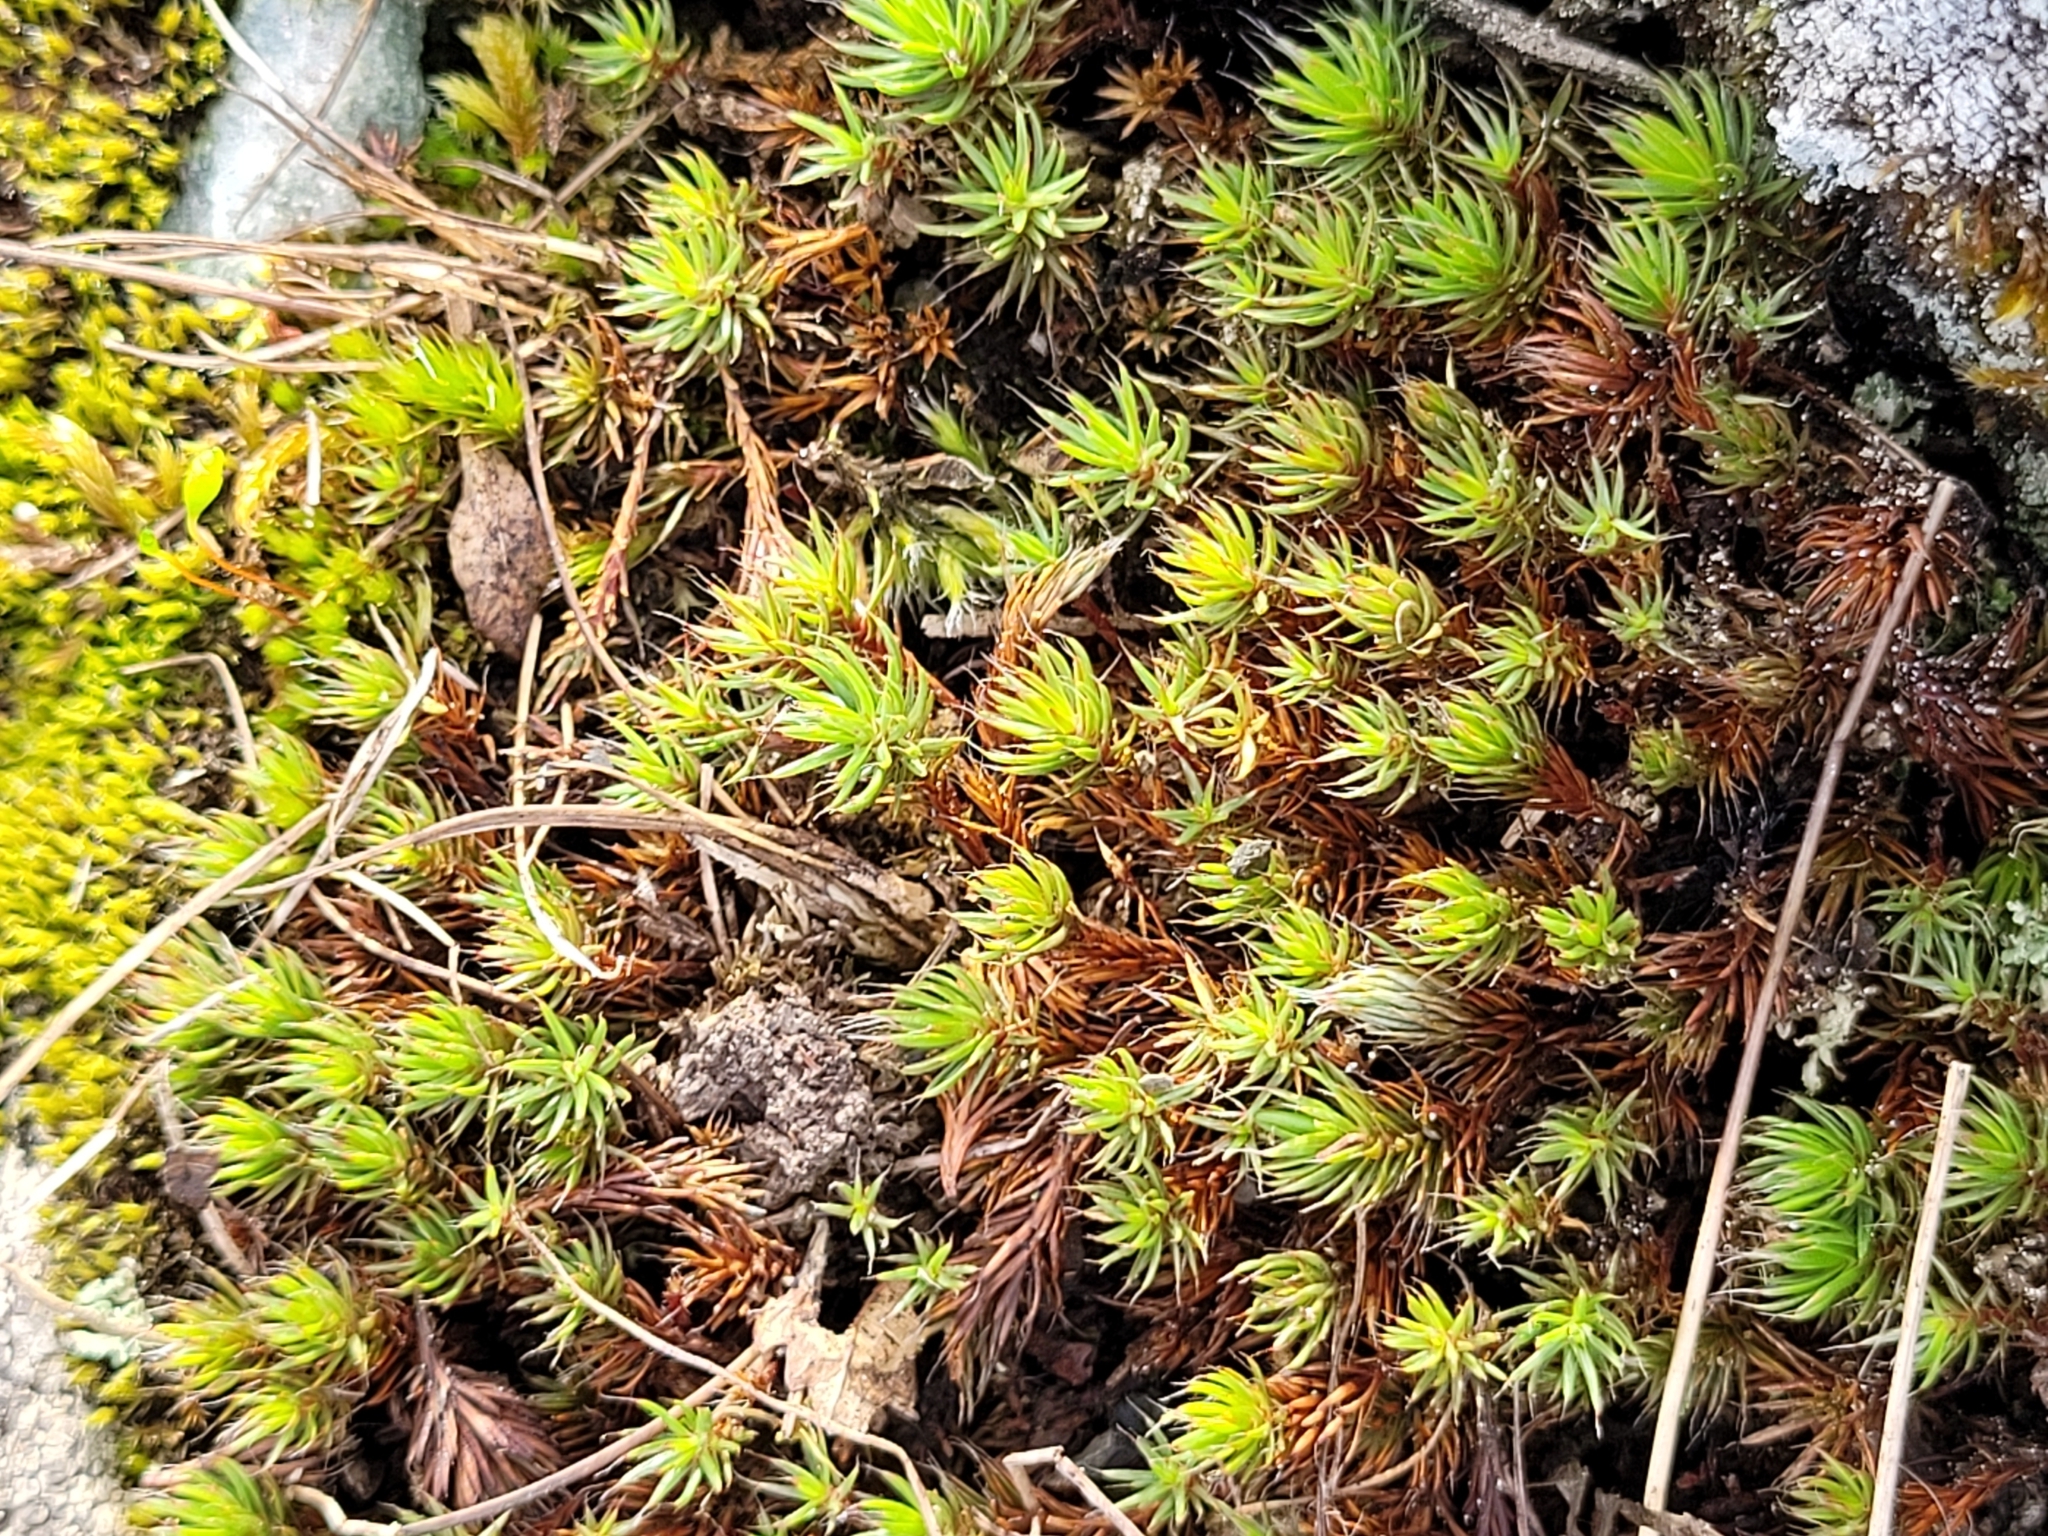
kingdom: Plantae
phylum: Bryophyta
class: Polytrichopsida
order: Polytrichales
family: Polytrichaceae
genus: Polytrichum
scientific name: Polytrichum piliferum
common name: Bristly haircap
